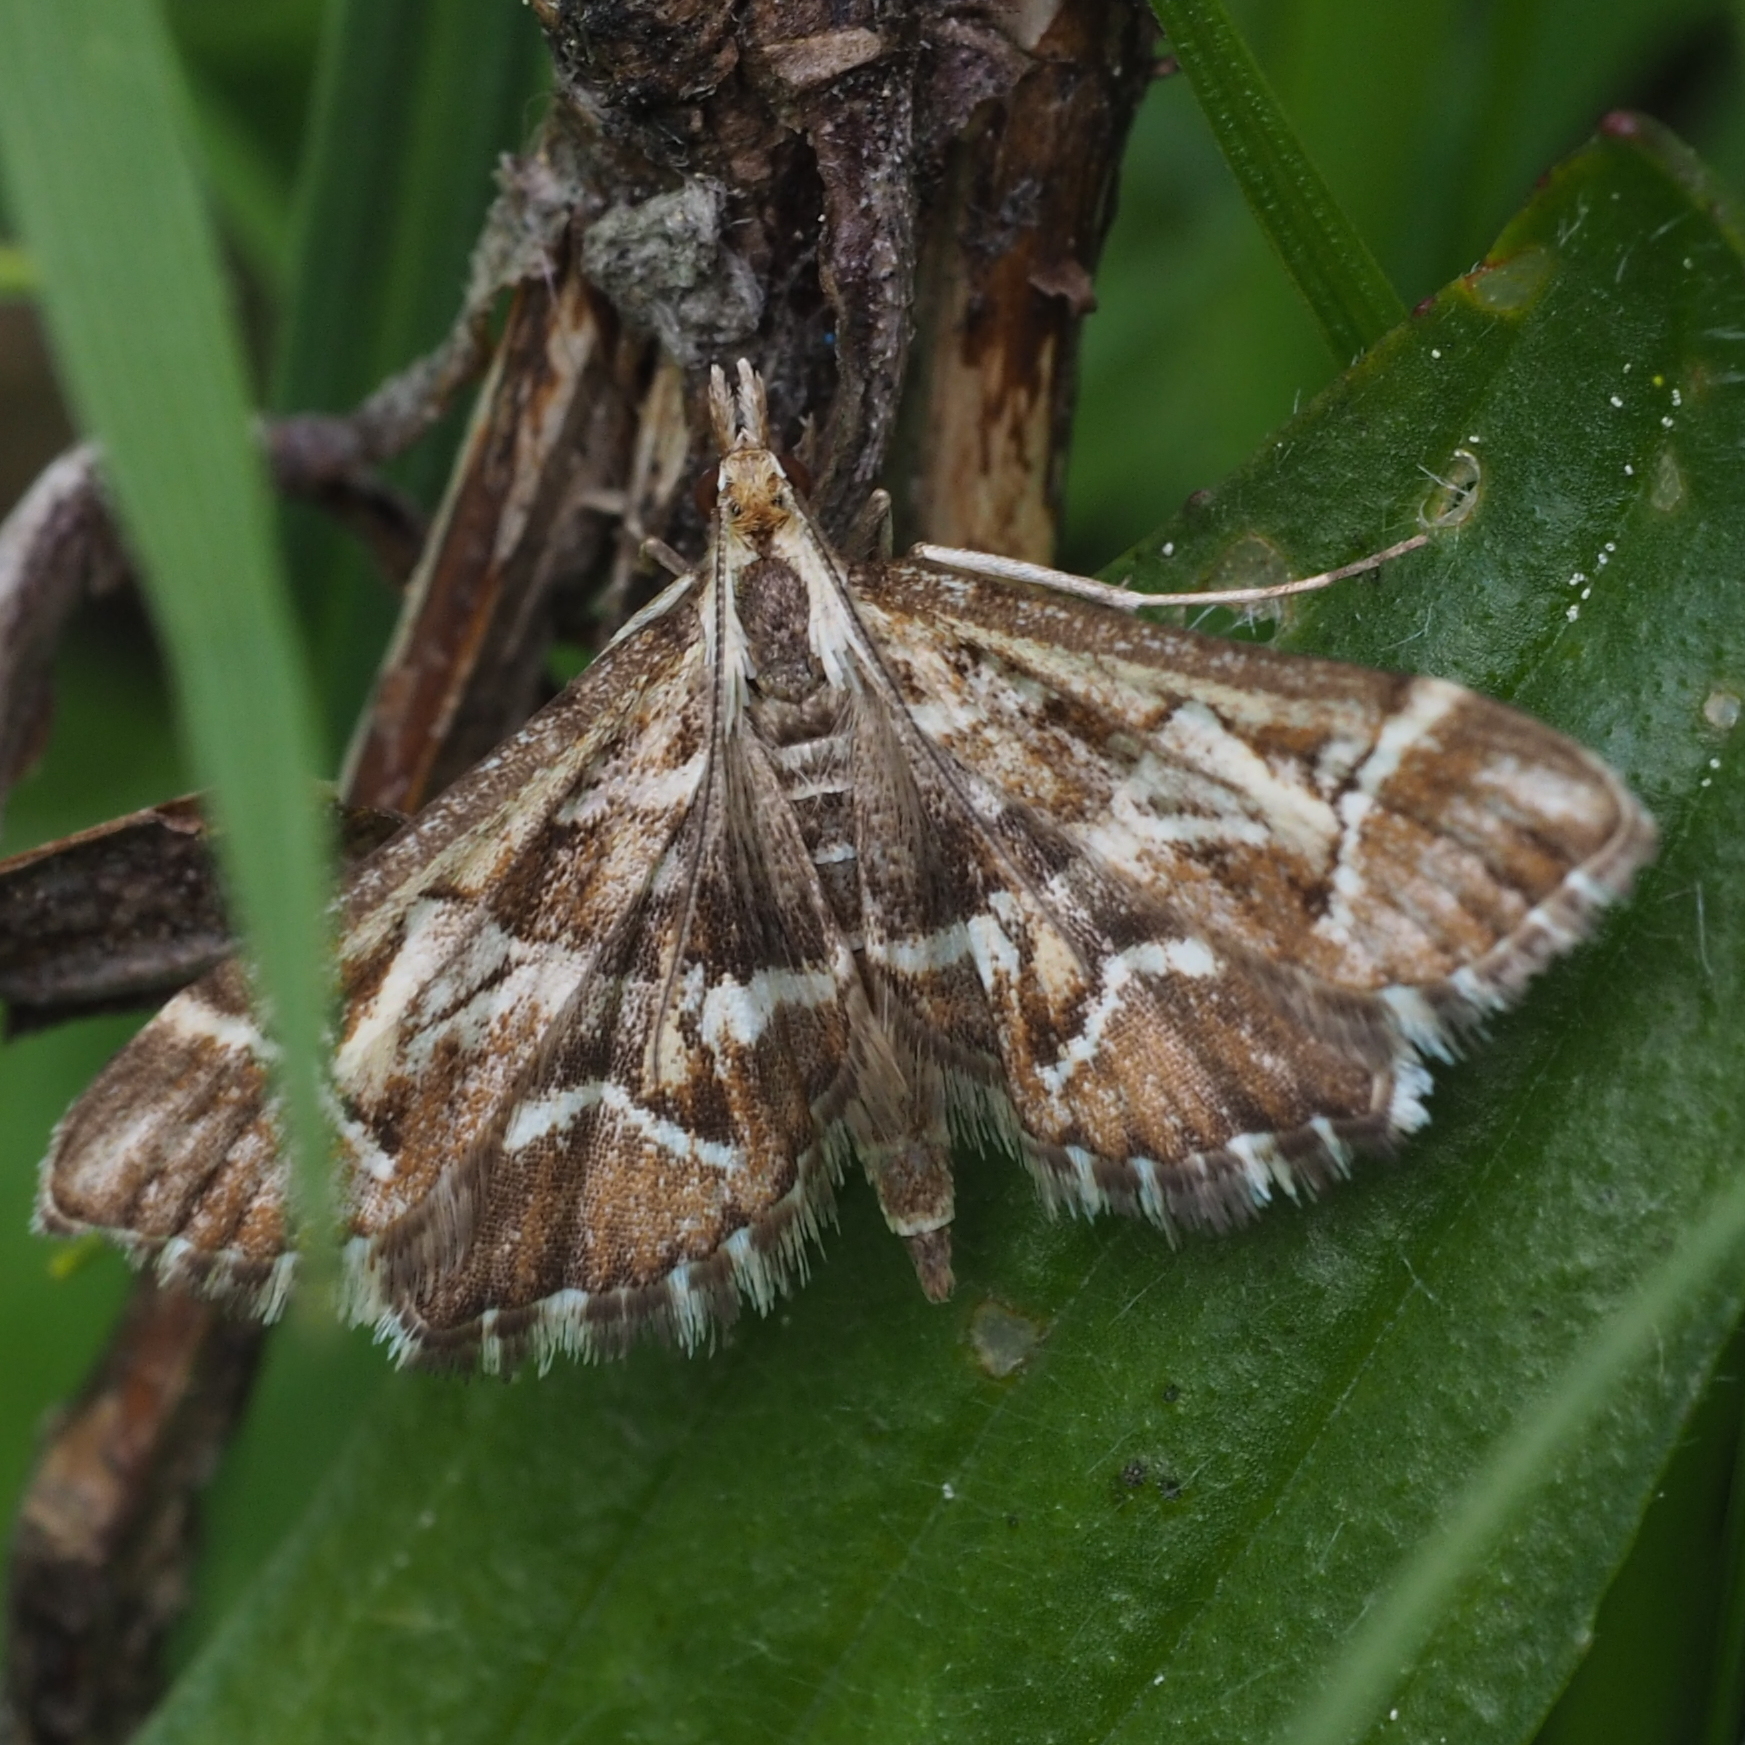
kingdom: Animalia
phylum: Arthropoda
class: Insecta
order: Lepidoptera
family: Crambidae
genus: Diasemia
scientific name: Diasemia reticularis
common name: Lettered china-mark
